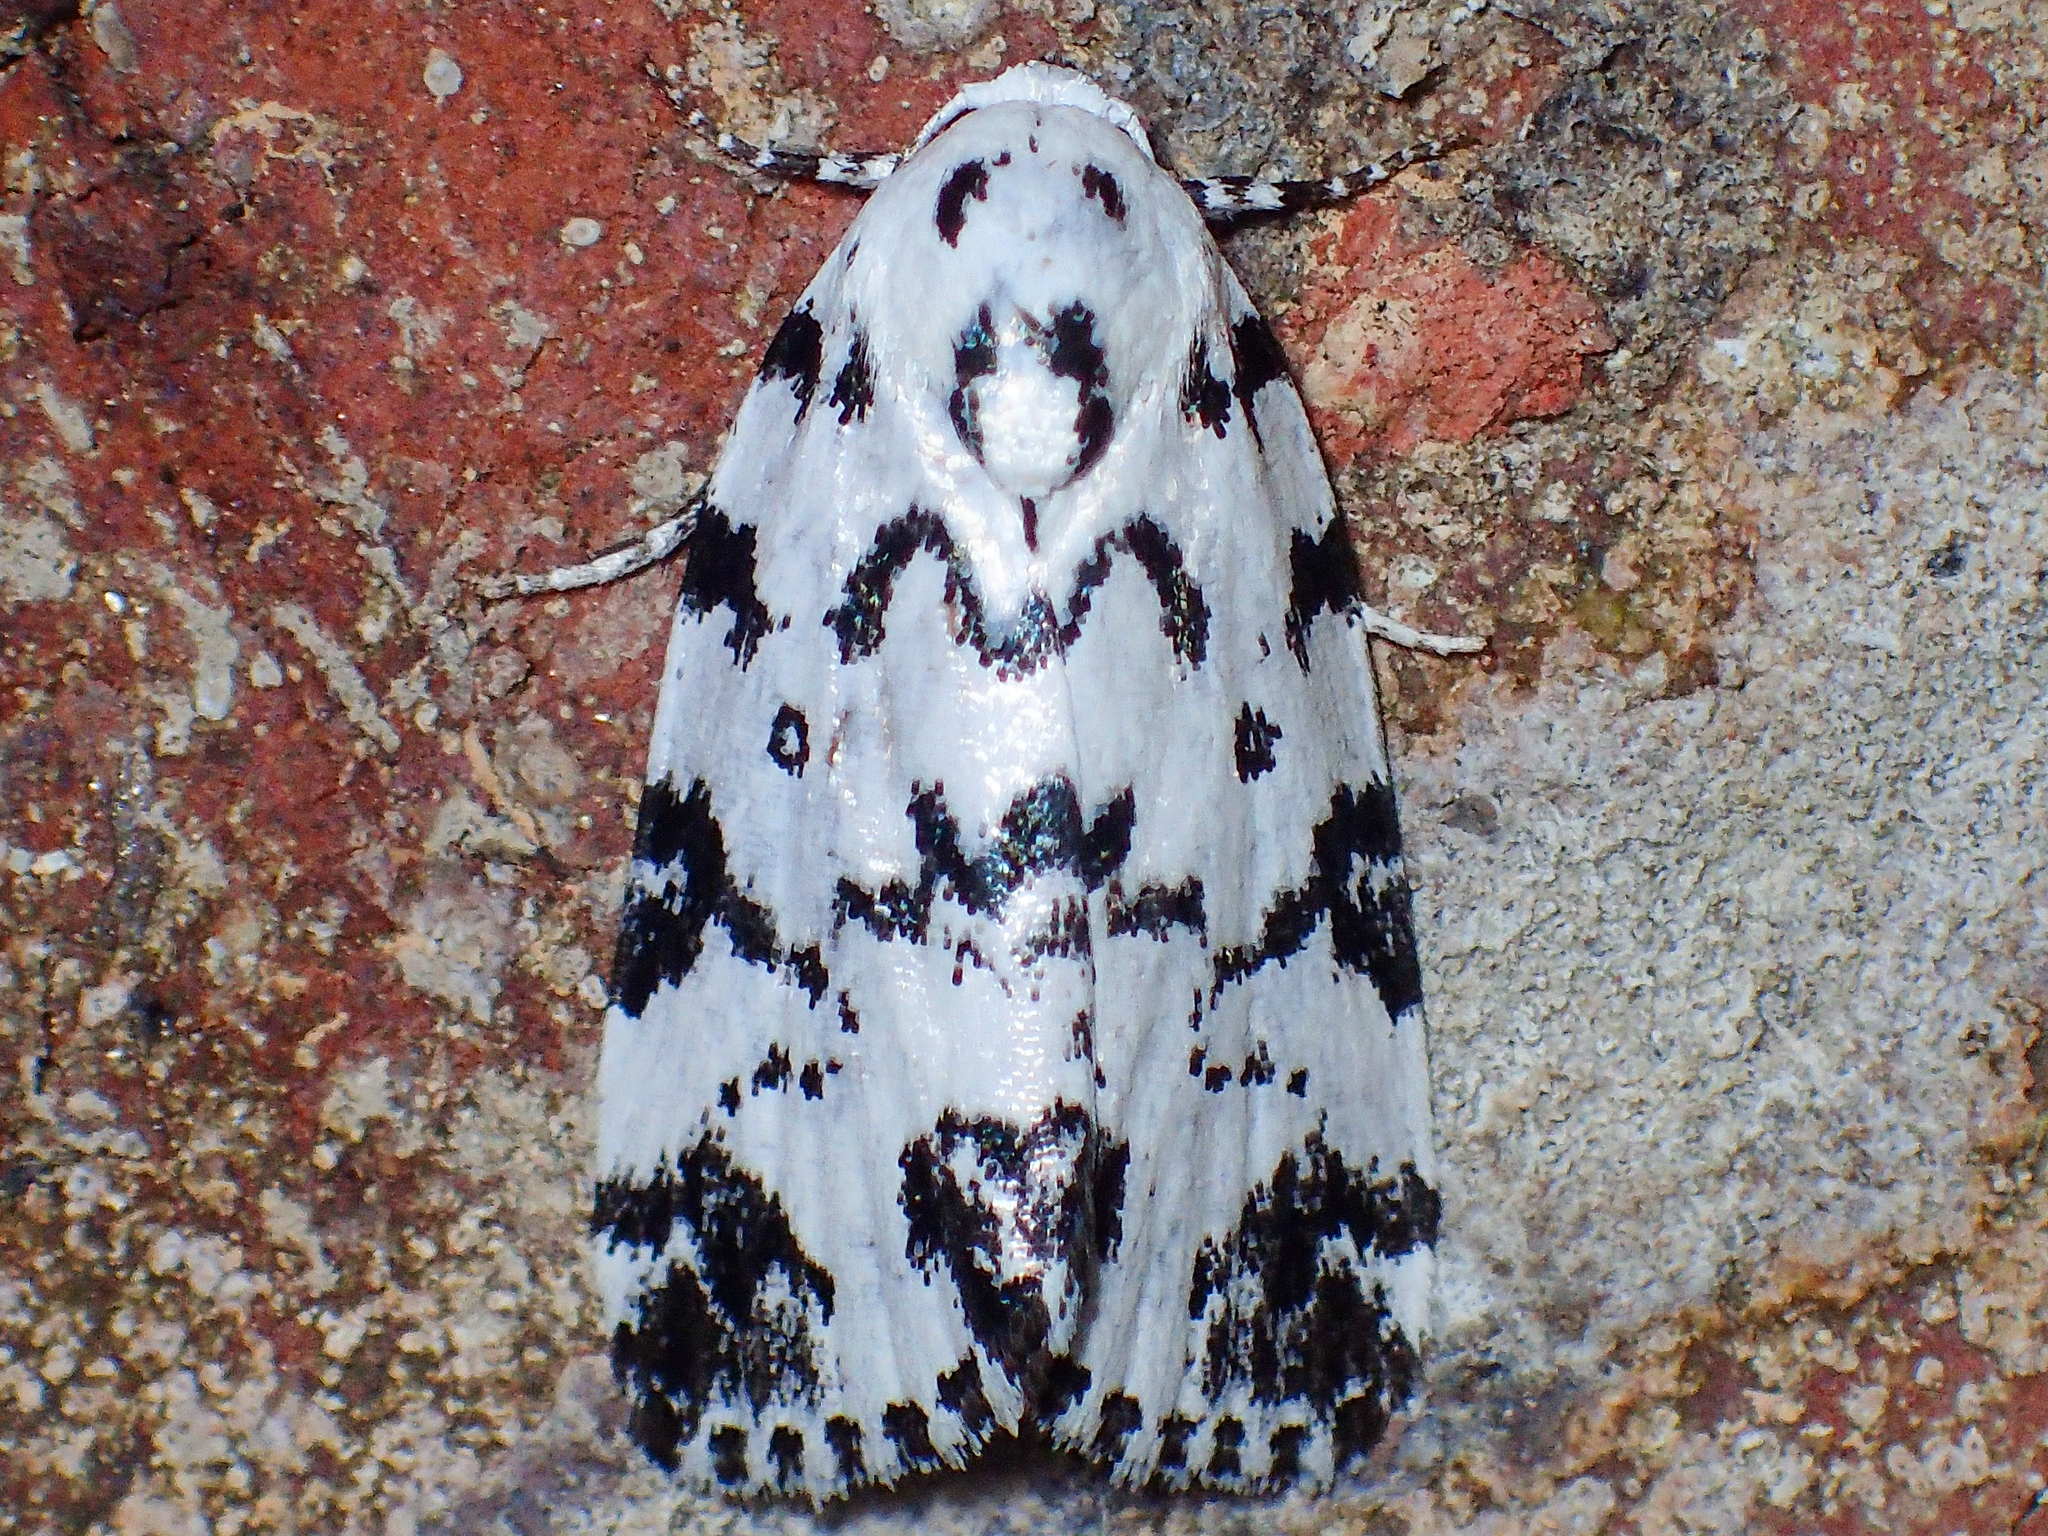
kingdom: Animalia
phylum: Arthropoda
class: Insecta
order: Lepidoptera
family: Noctuidae
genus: Polygrammate
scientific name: Polygrammate hebraeicum
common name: Hebrew moth
